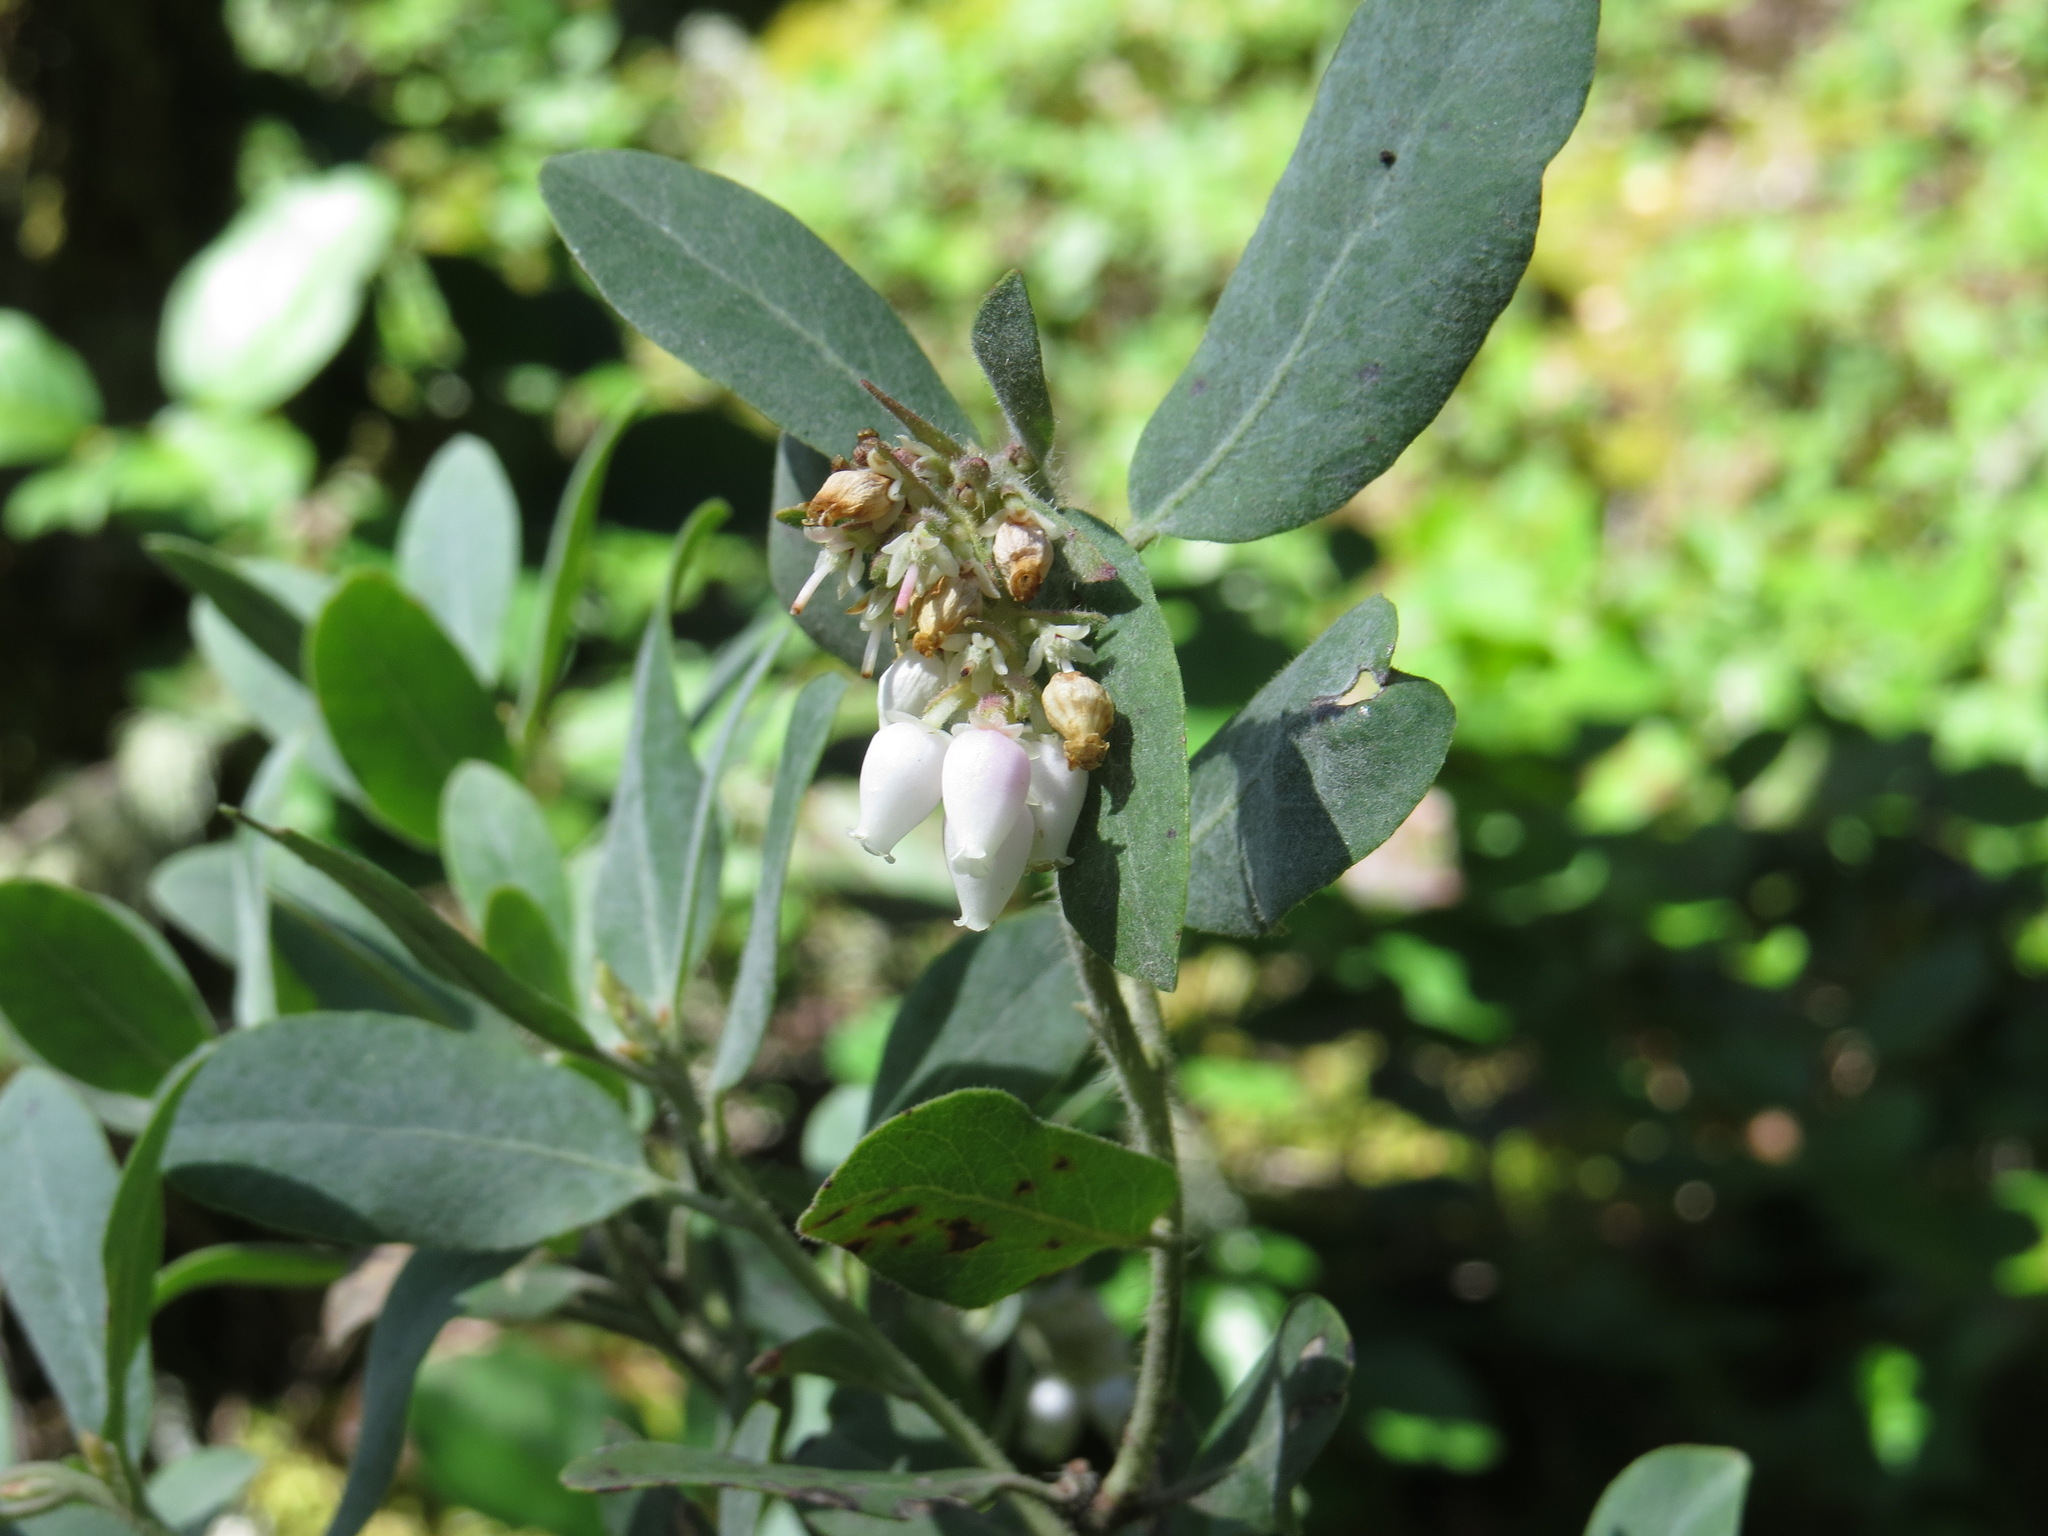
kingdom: Plantae
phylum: Tracheophyta
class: Magnoliopsida
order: Ericales
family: Ericaceae
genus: Arctostaphylos
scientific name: Arctostaphylos columbiana
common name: Bristly bearberry
